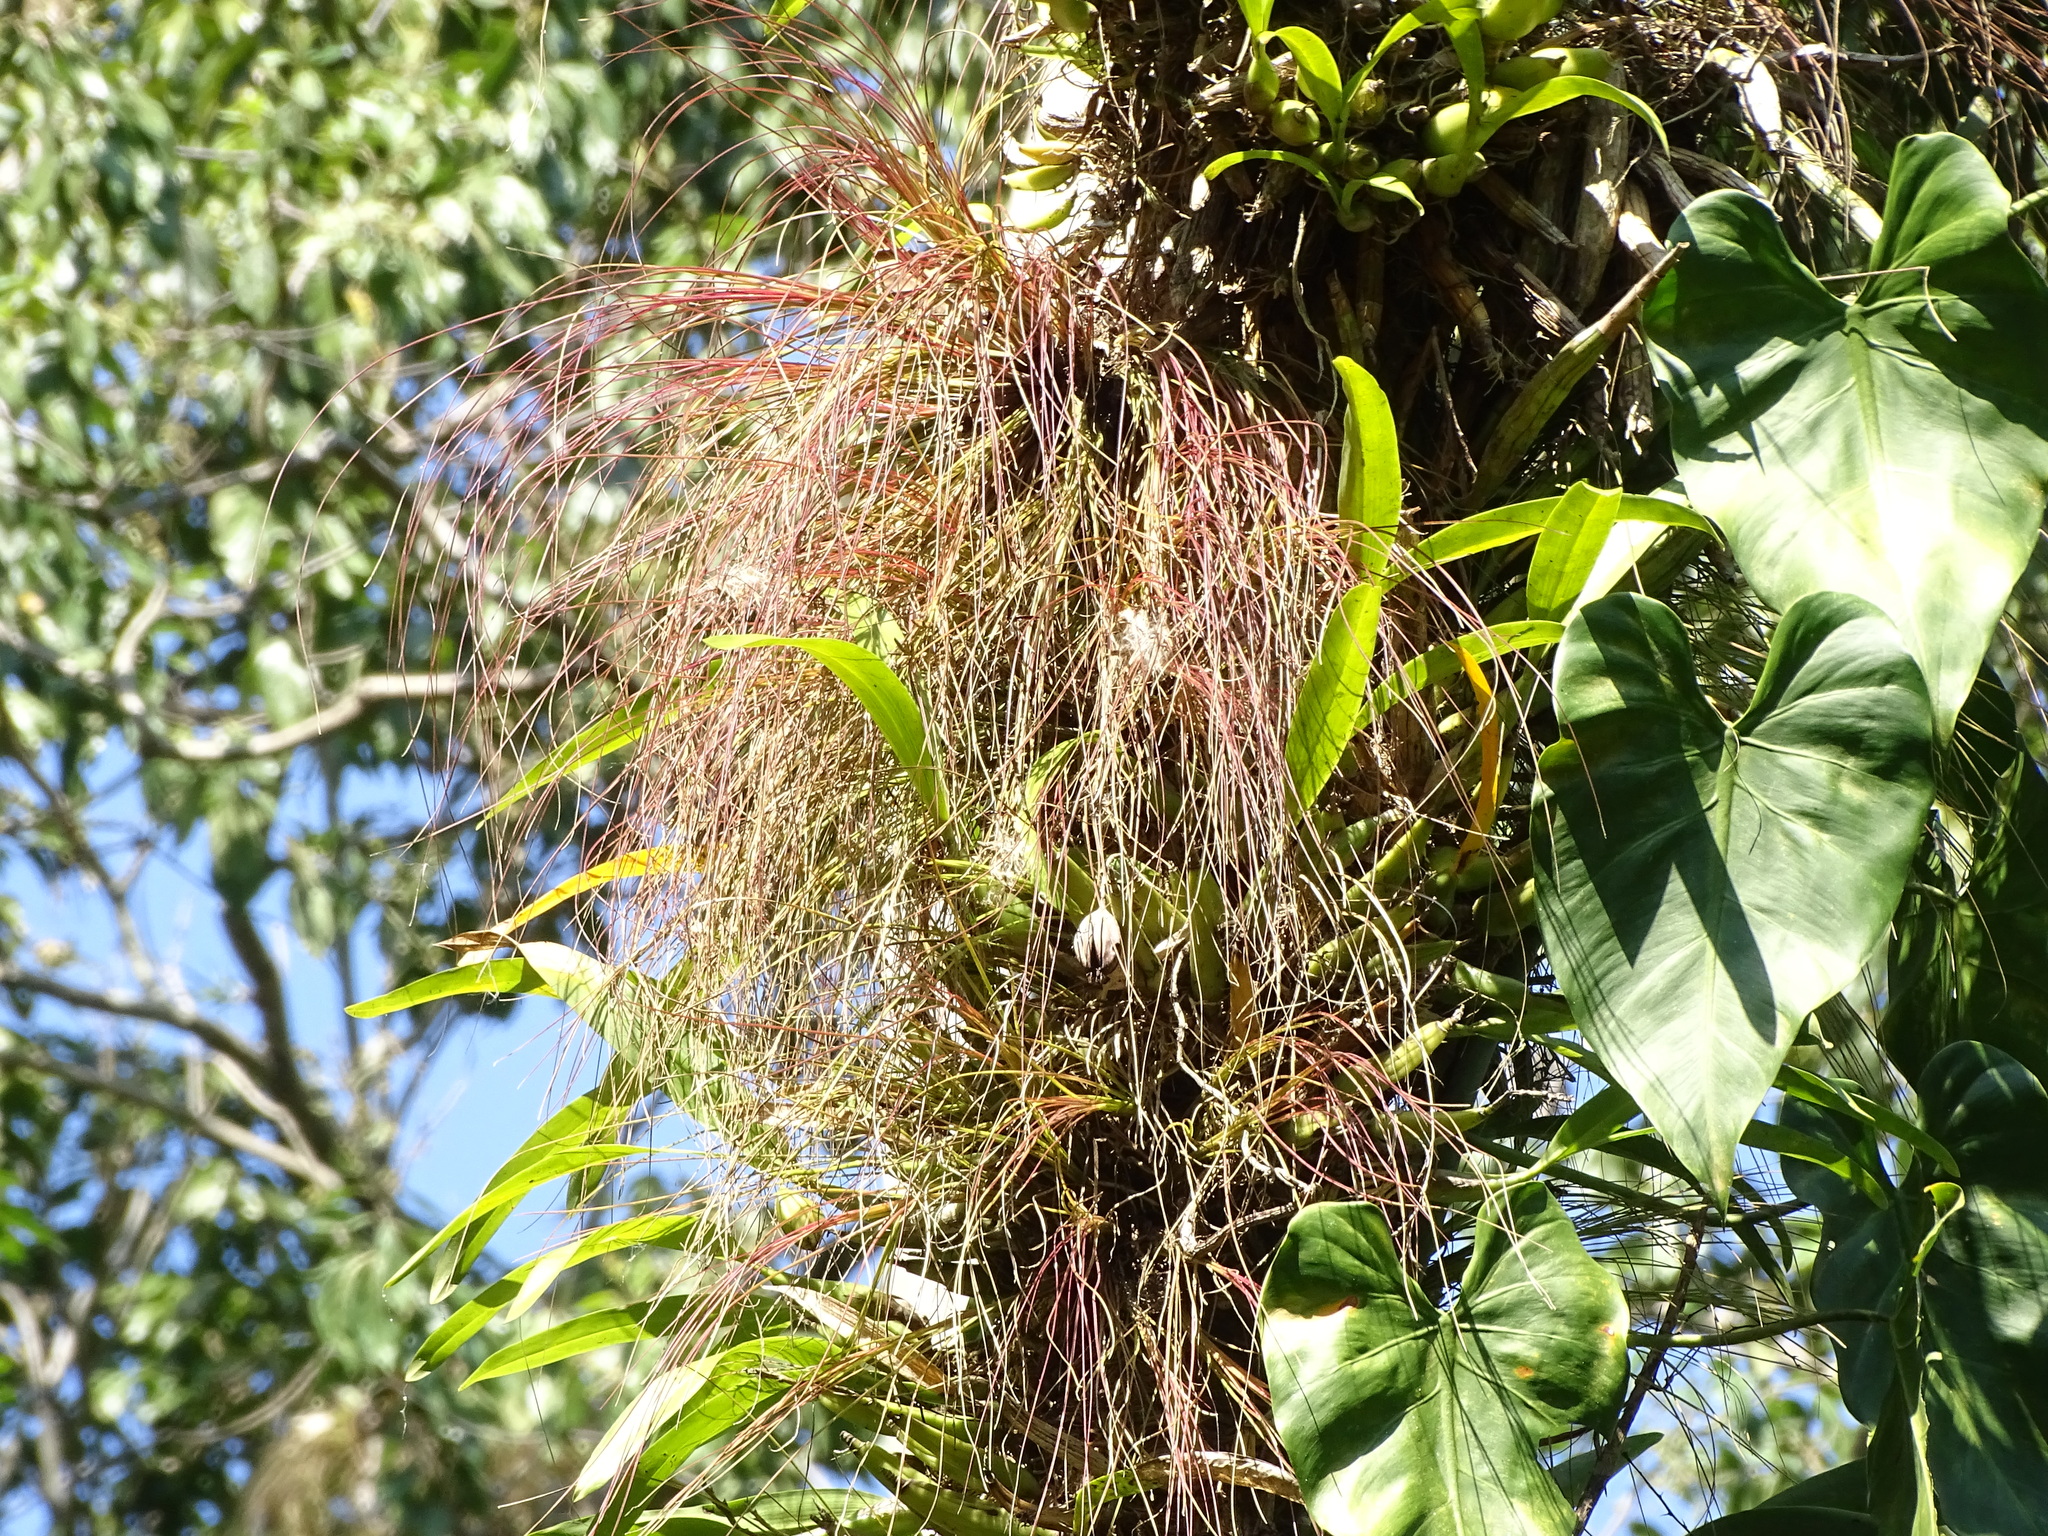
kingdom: Plantae
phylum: Tracheophyta
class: Liliopsida
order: Poales
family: Bromeliaceae
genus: Tillandsia
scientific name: Tillandsia eistetteri
